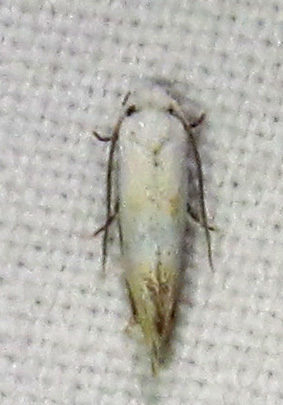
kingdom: Animalia
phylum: Arthropoda
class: Insecta
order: Lepidoptera
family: Meessiidae
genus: Mea
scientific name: Mea skinnerella
